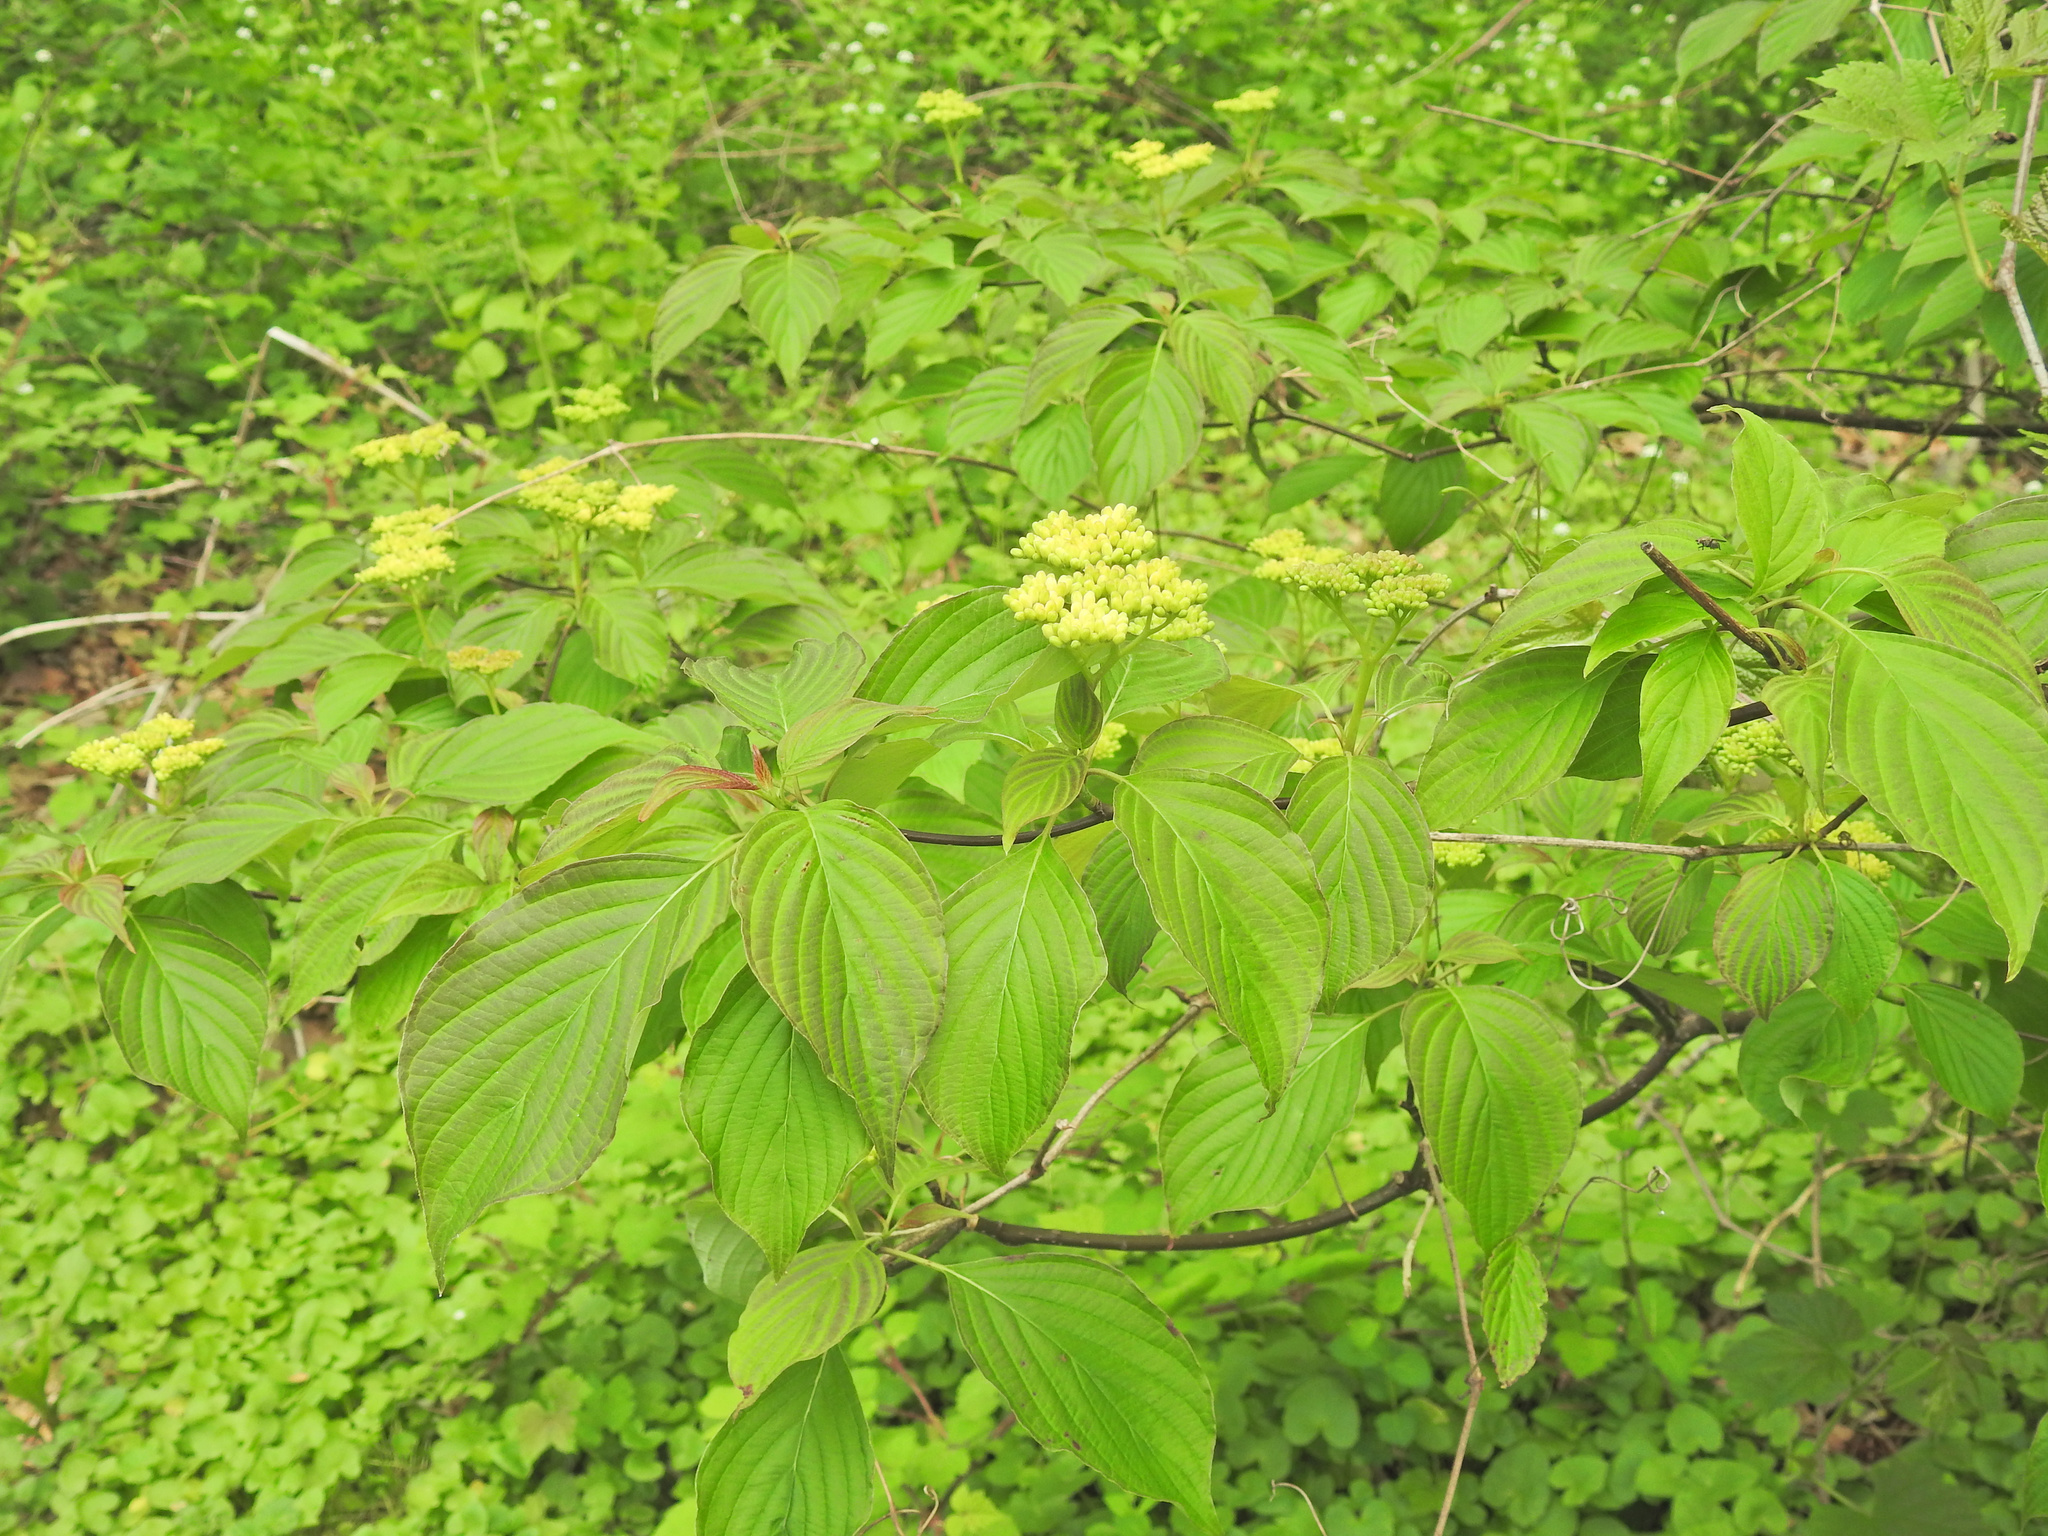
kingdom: Plantae
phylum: Tracheophyta
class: Magnoliopsida
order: Cornales
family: Cornaceae
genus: Cornus
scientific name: Cornus alternifolia
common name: Pagoda dogwood
